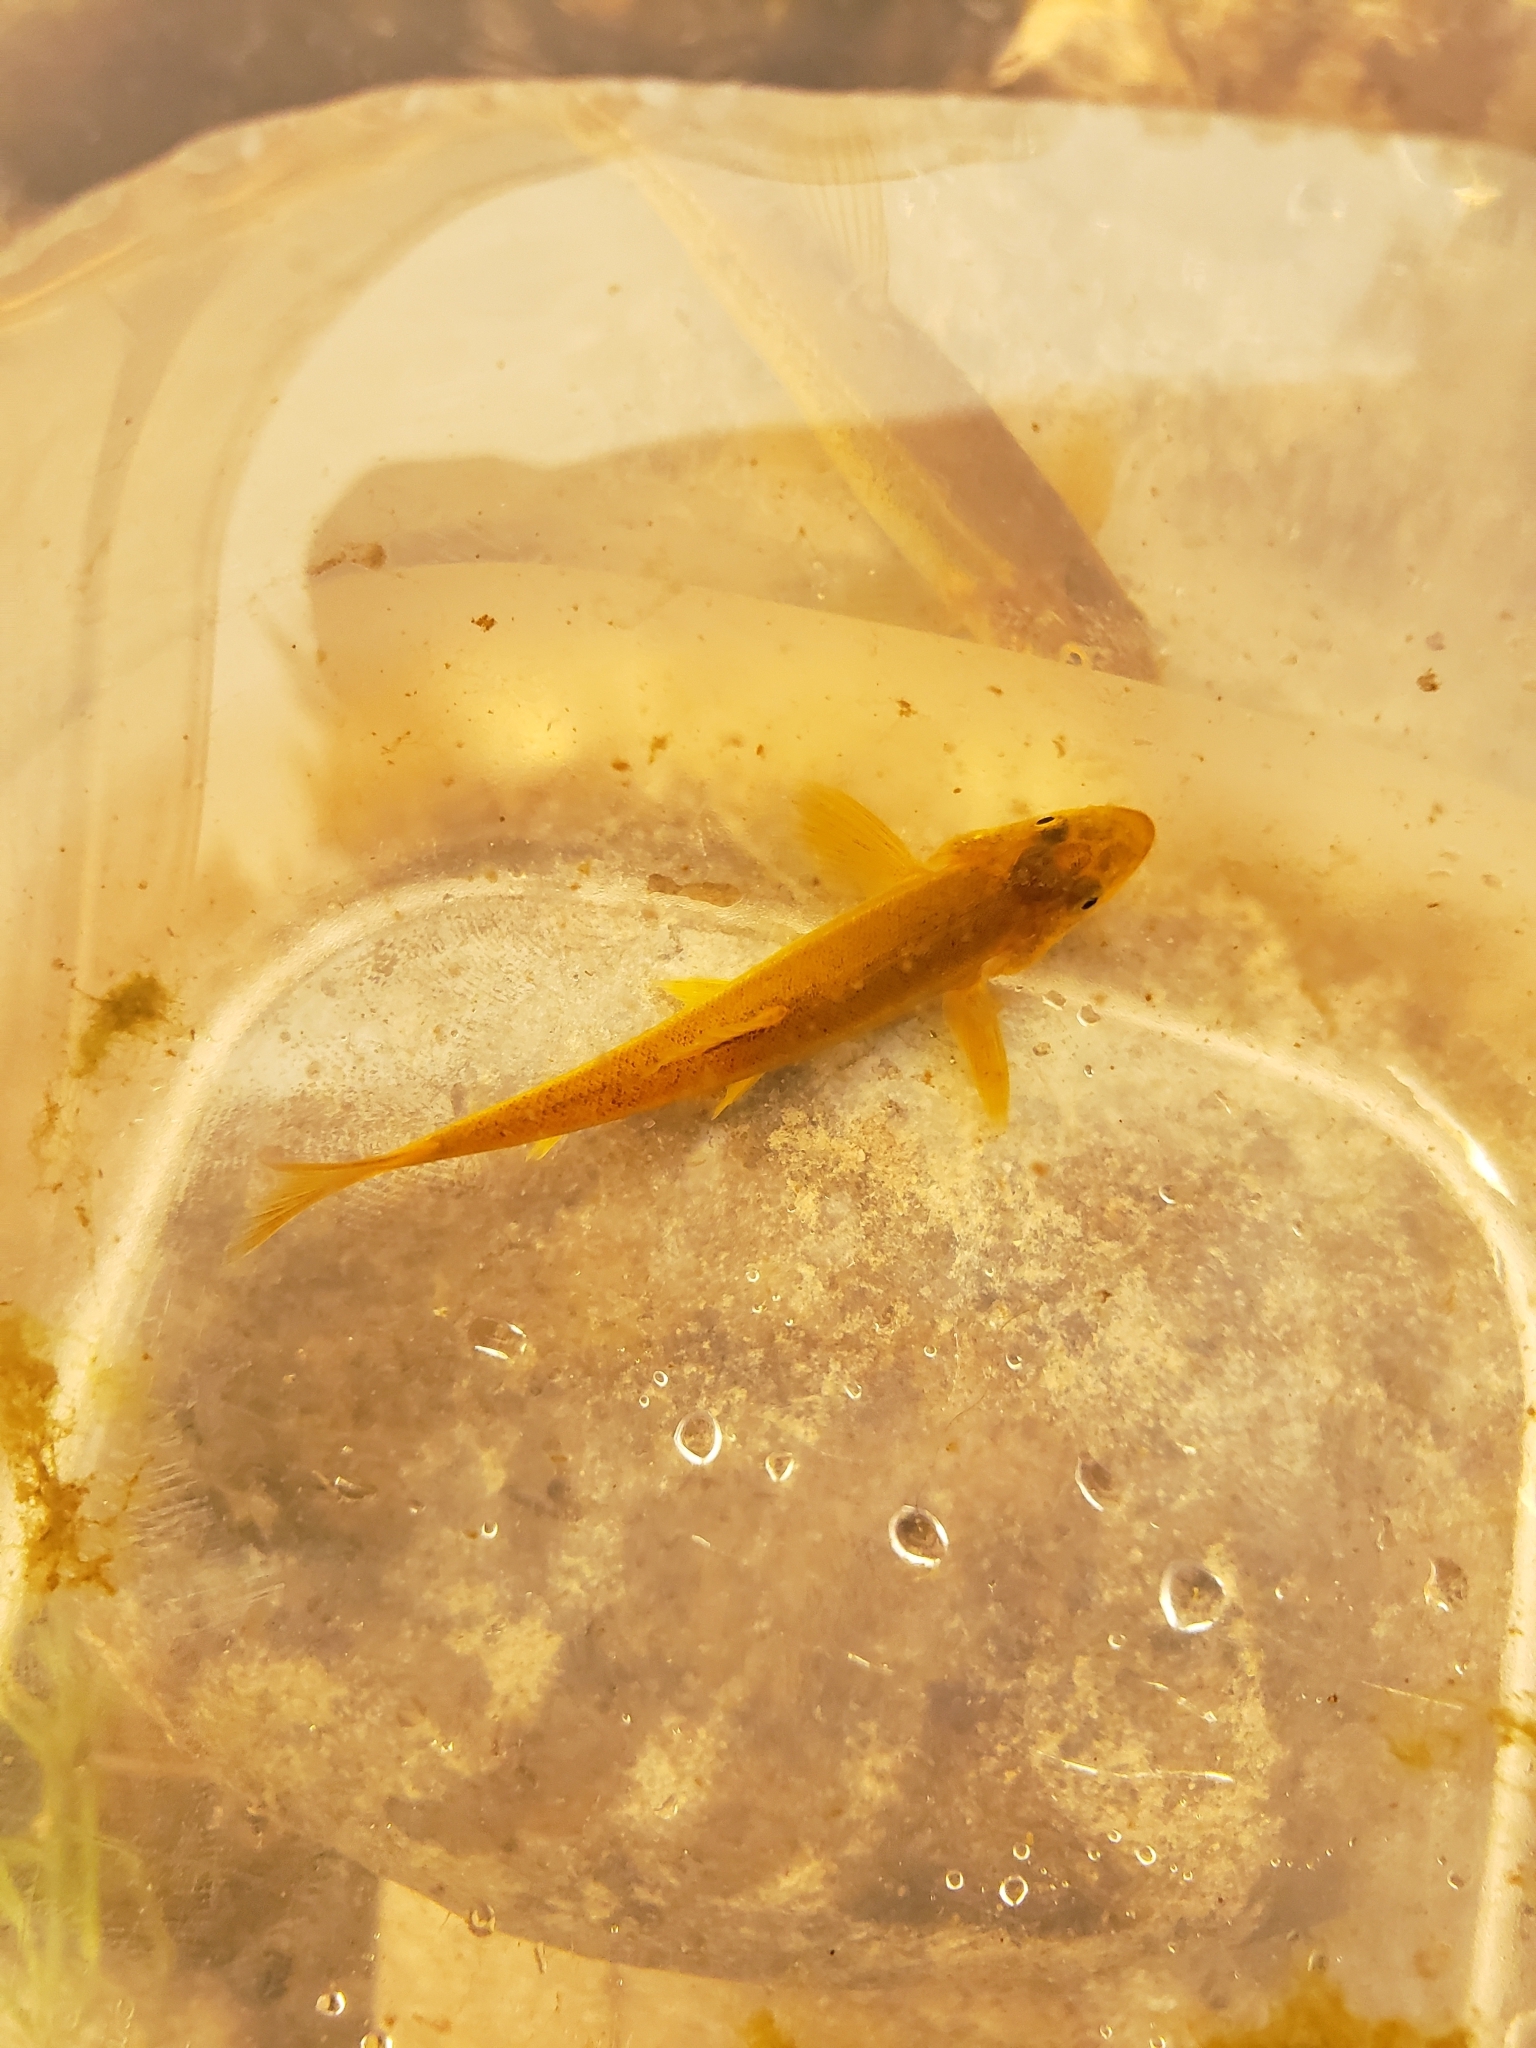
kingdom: Animalia
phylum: Chordata
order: Cypriniformes
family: Cyprinidae
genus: Rhinichthys
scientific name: Rhinichthys cataractae
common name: Longnose dace
